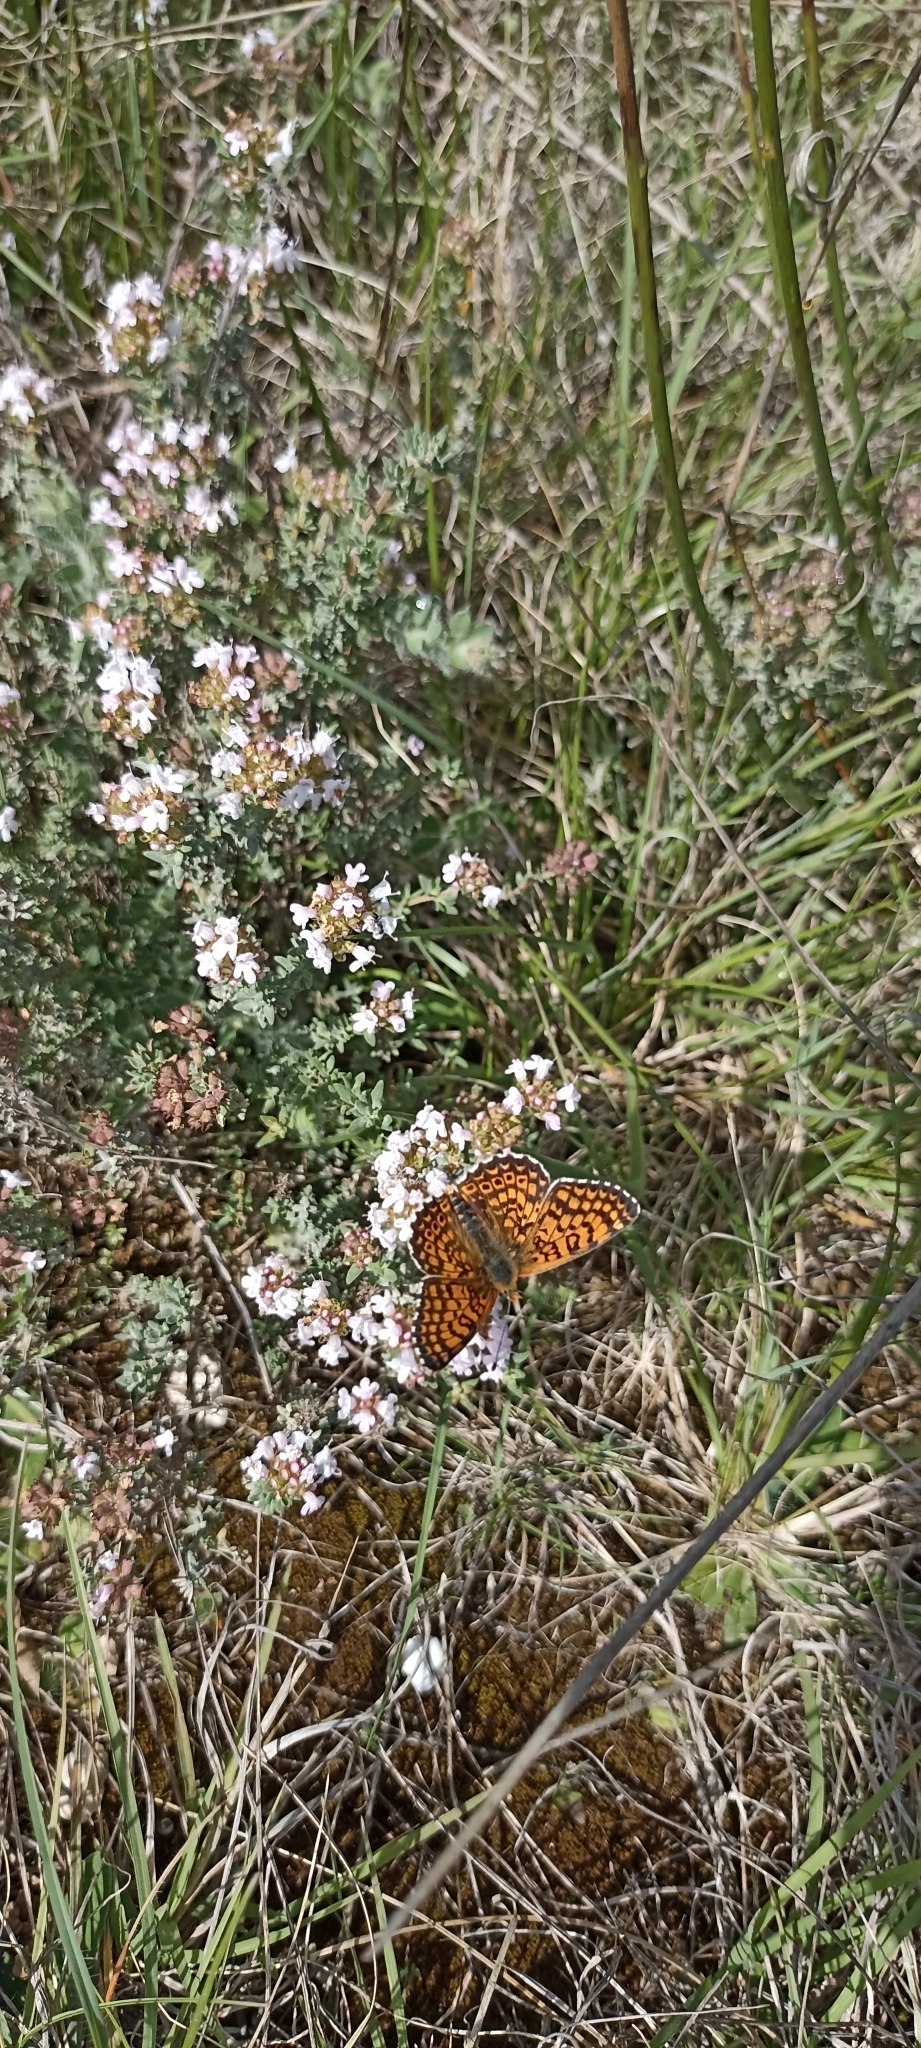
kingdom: Animalia
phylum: Arthropoda
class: Insecta
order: Lepidoptera
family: Nymphalidae
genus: Melitaea
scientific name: Melitaea cinxia
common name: Glanville fritillary
